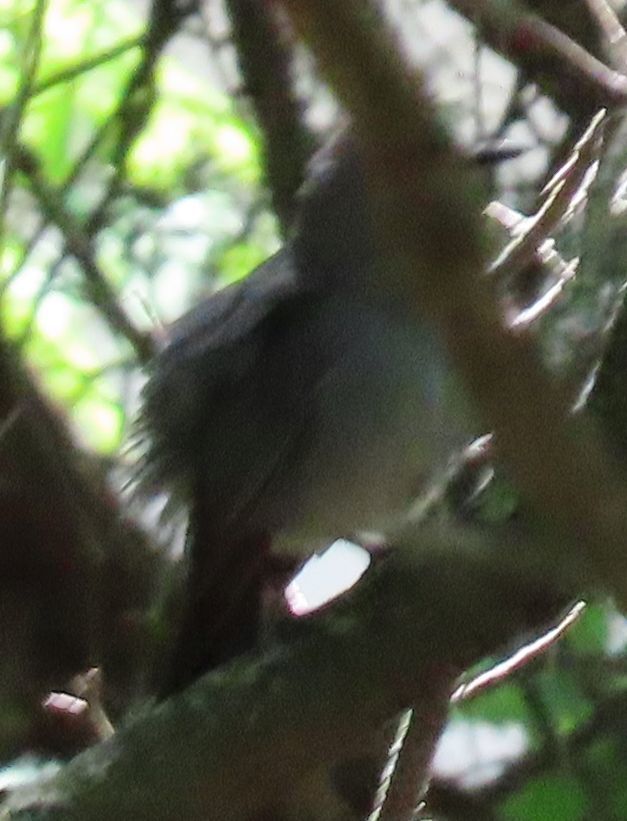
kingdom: Animalia
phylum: Chordata
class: Aves
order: Passeriformes
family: Mimidae
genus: Dumetella
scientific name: Dumetella carolinensis
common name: Gray catbird
